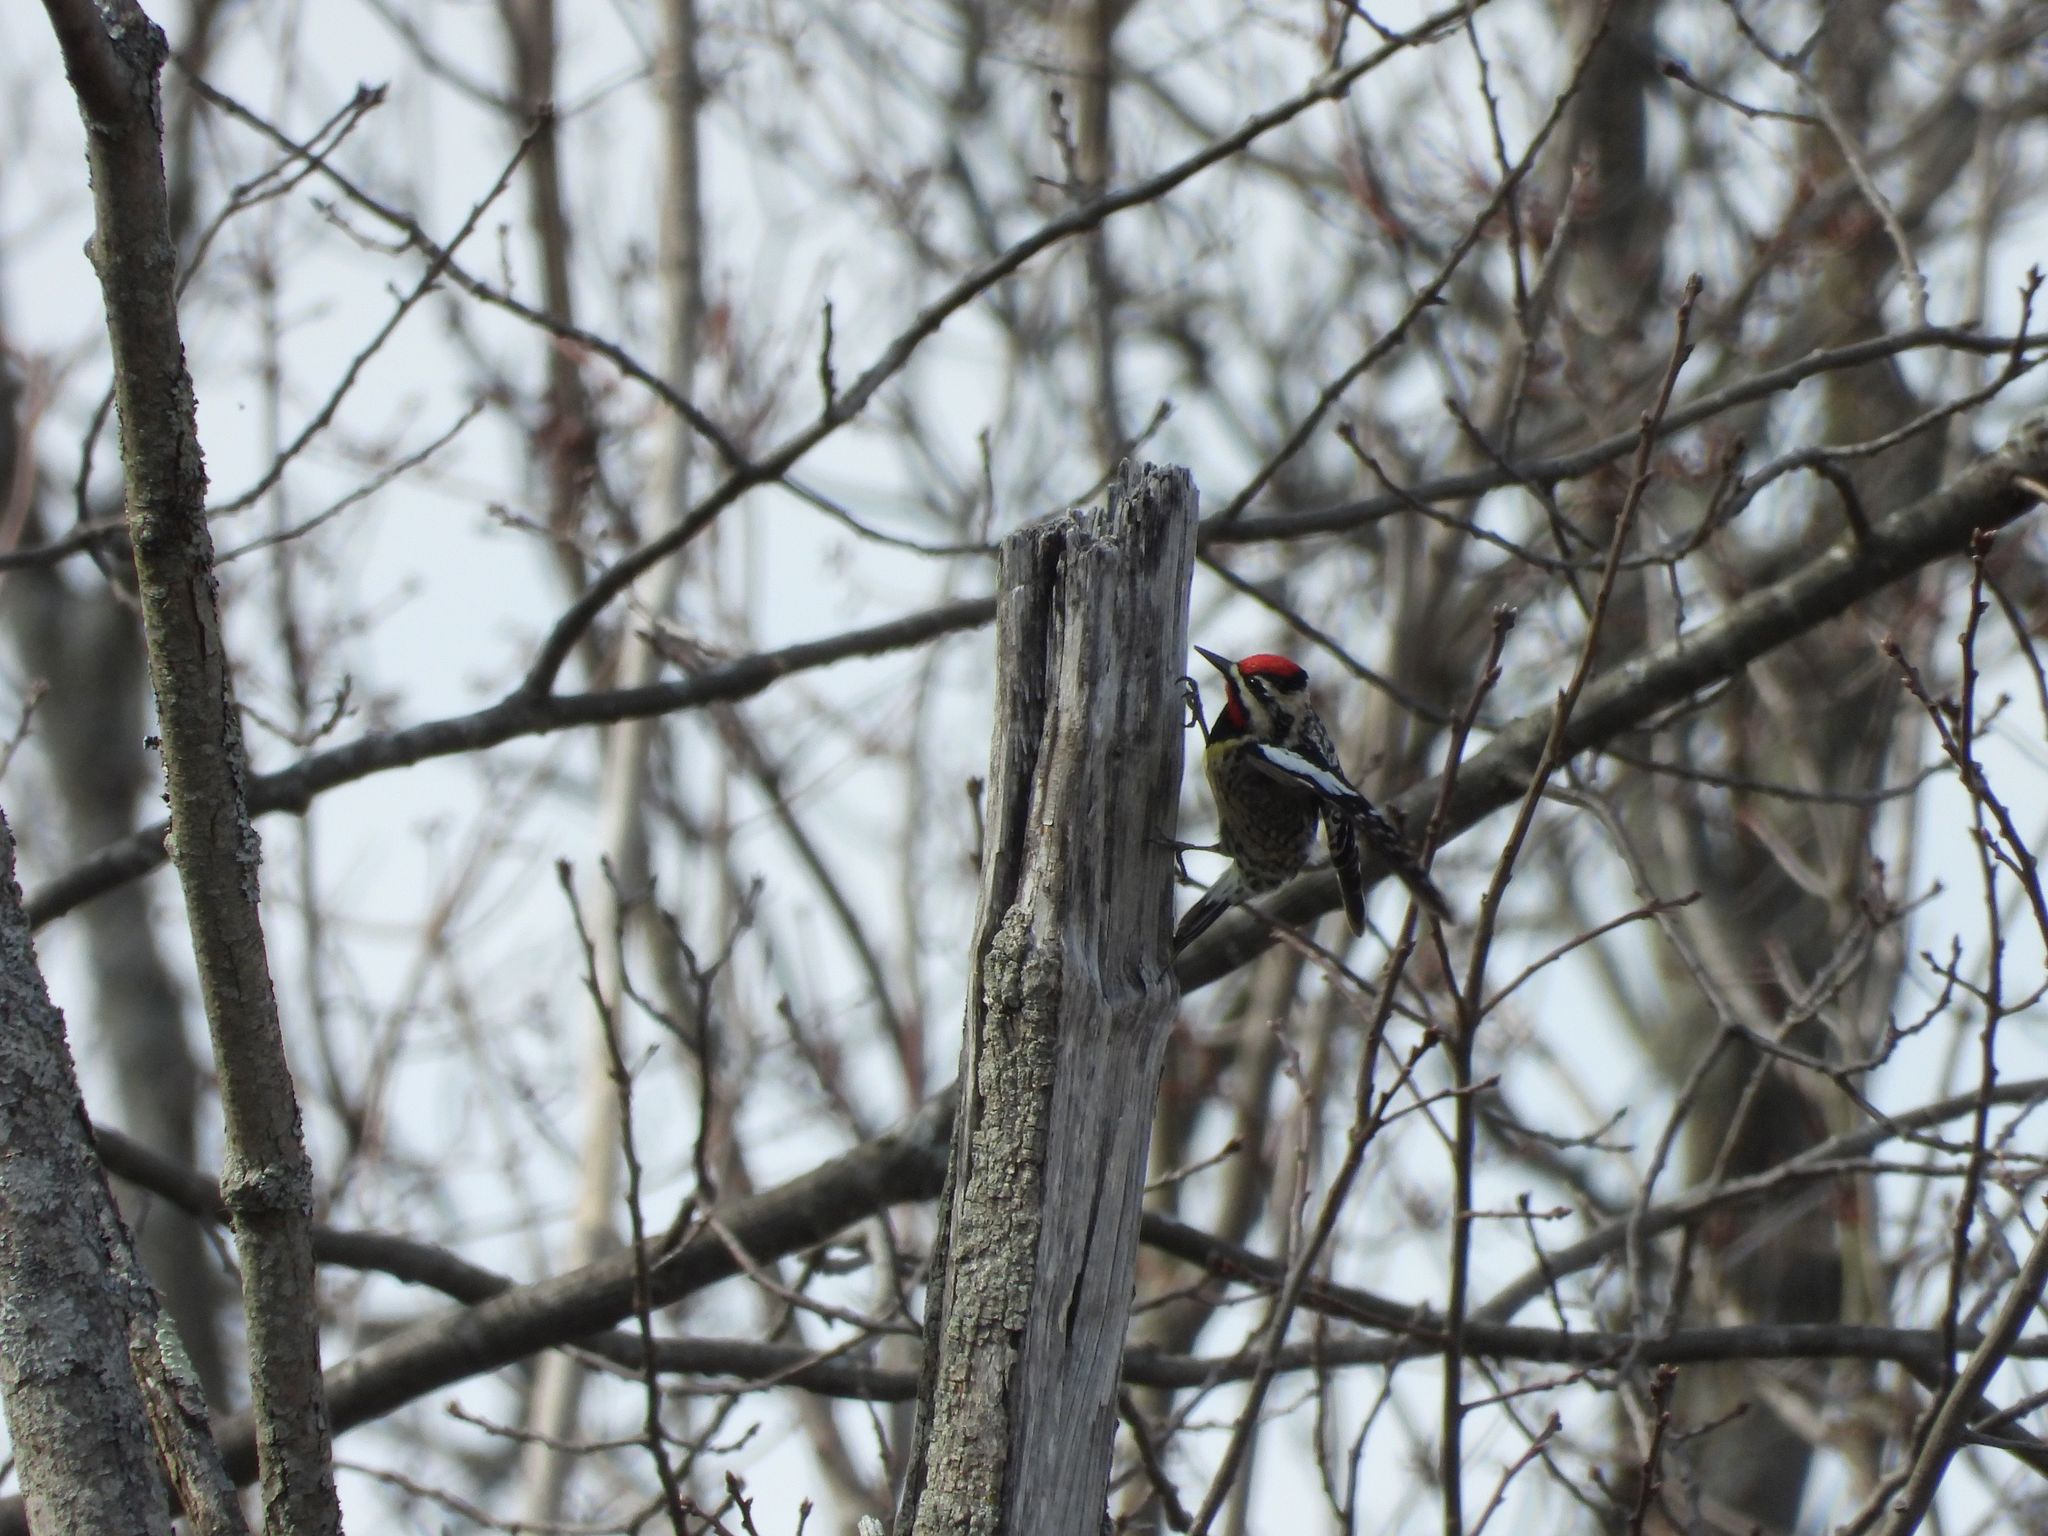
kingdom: Animalia
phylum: Chordata
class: Aves
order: Piciformes
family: Picidae
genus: Sphyrapicus
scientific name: Sphyrapicus varius
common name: Yellow-bellied sapsucker
